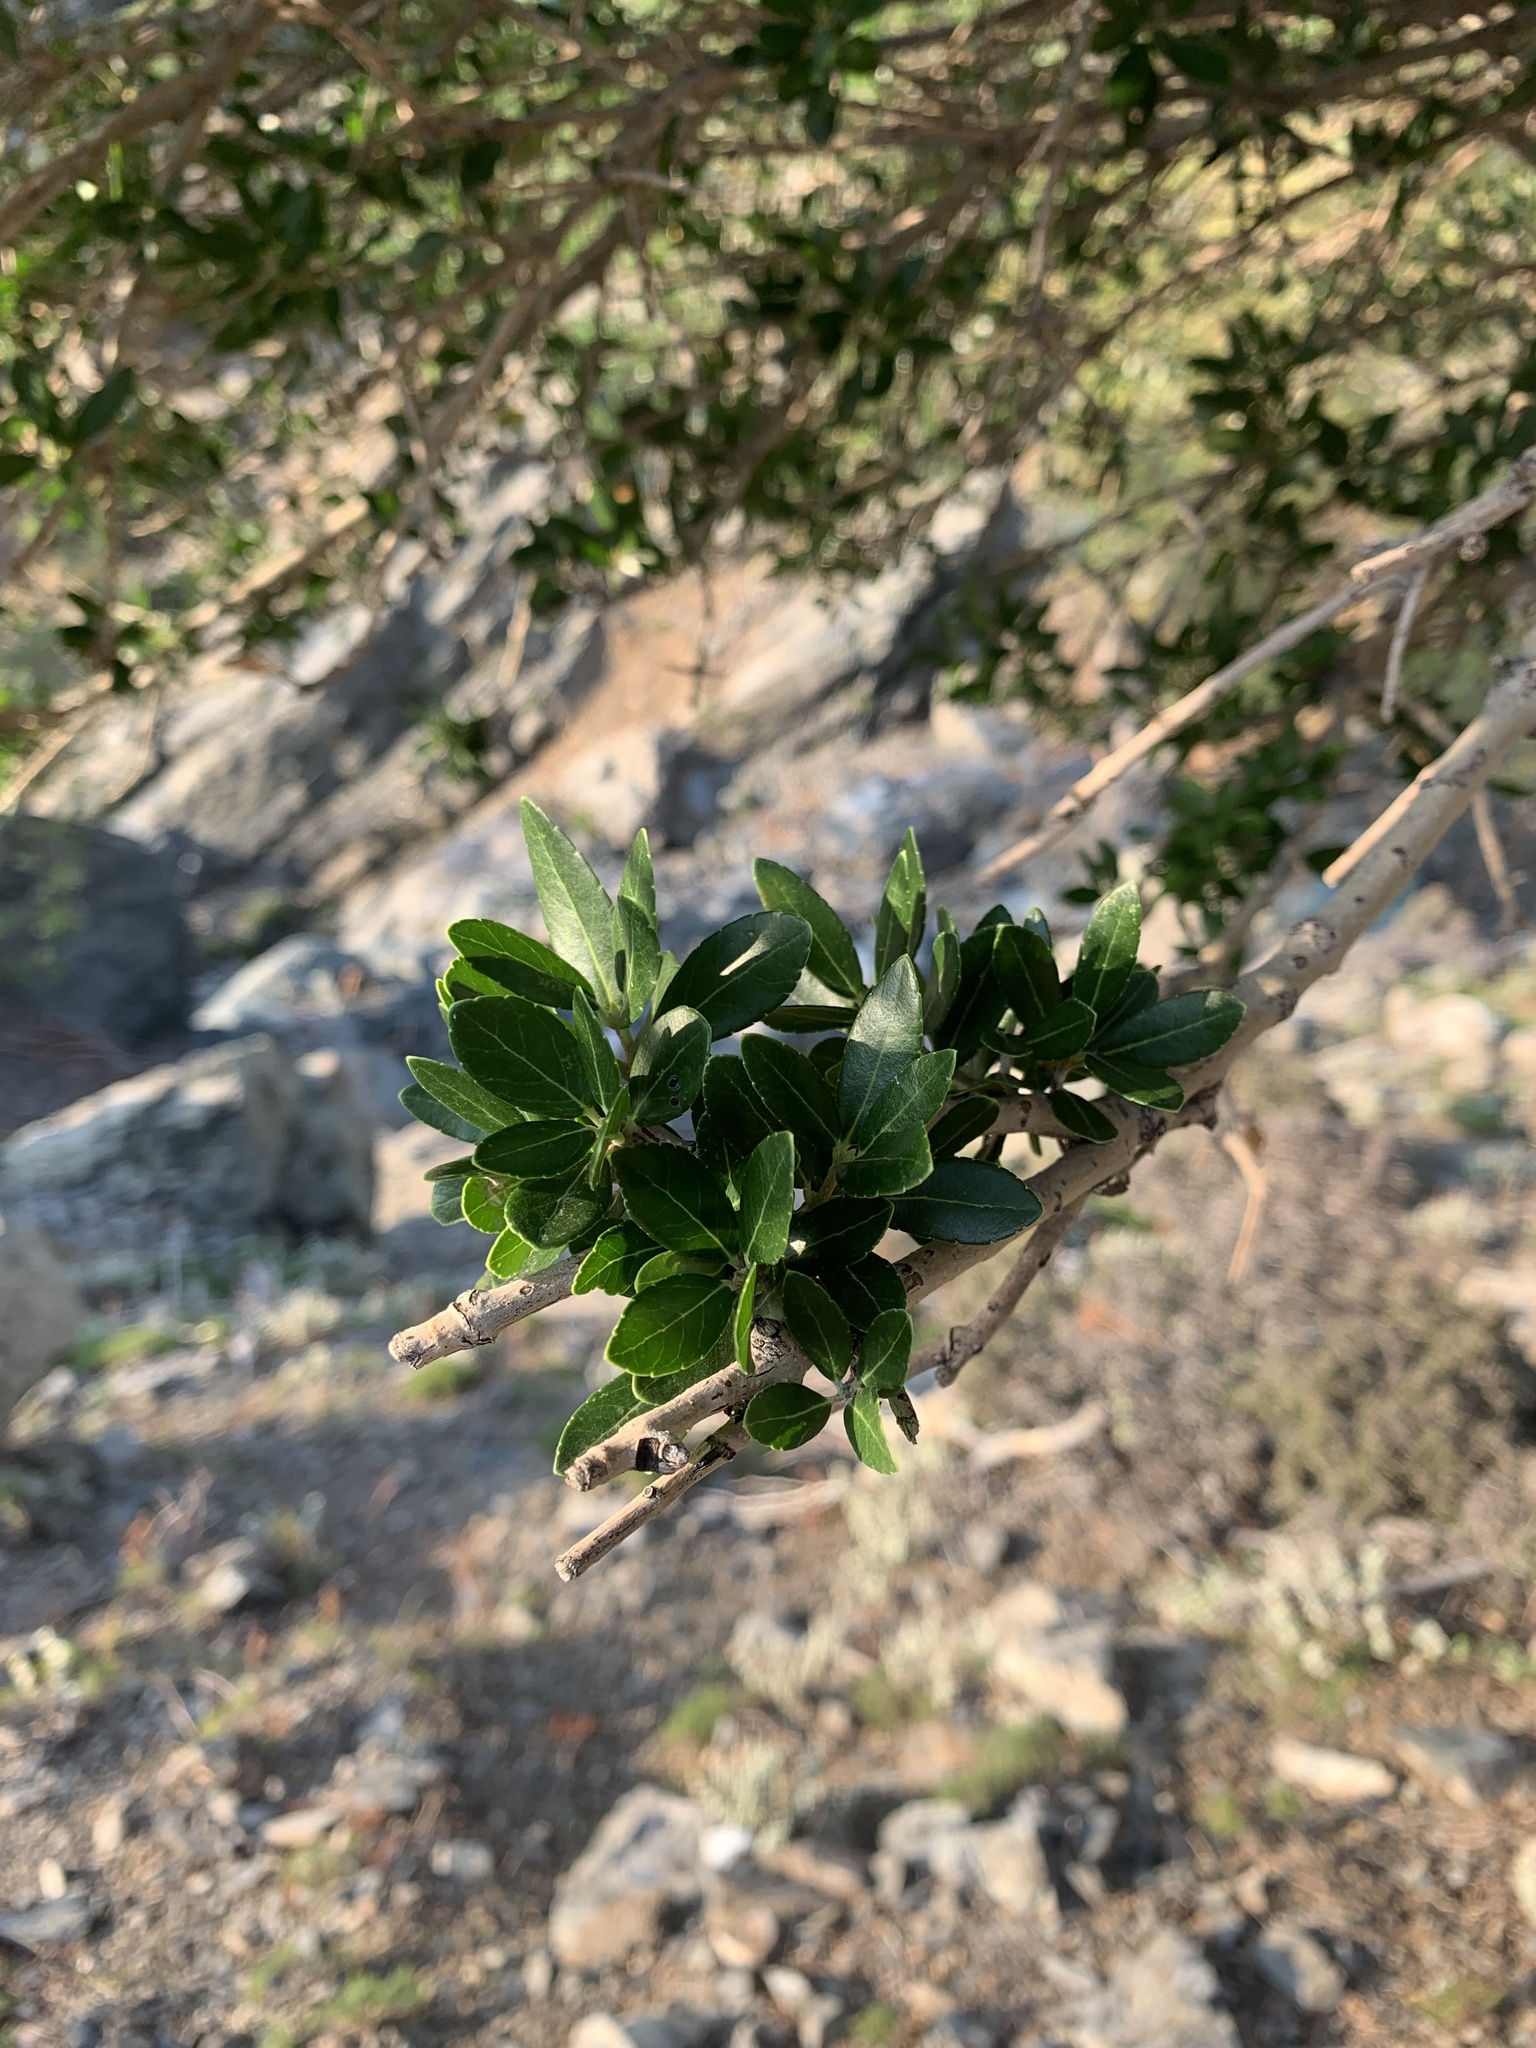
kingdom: Plantae
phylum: Tracheophyta
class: Magnoliopsida
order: Lamiales
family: Oleaceae
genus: Phillyrea
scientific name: Phillyrea latifolia
